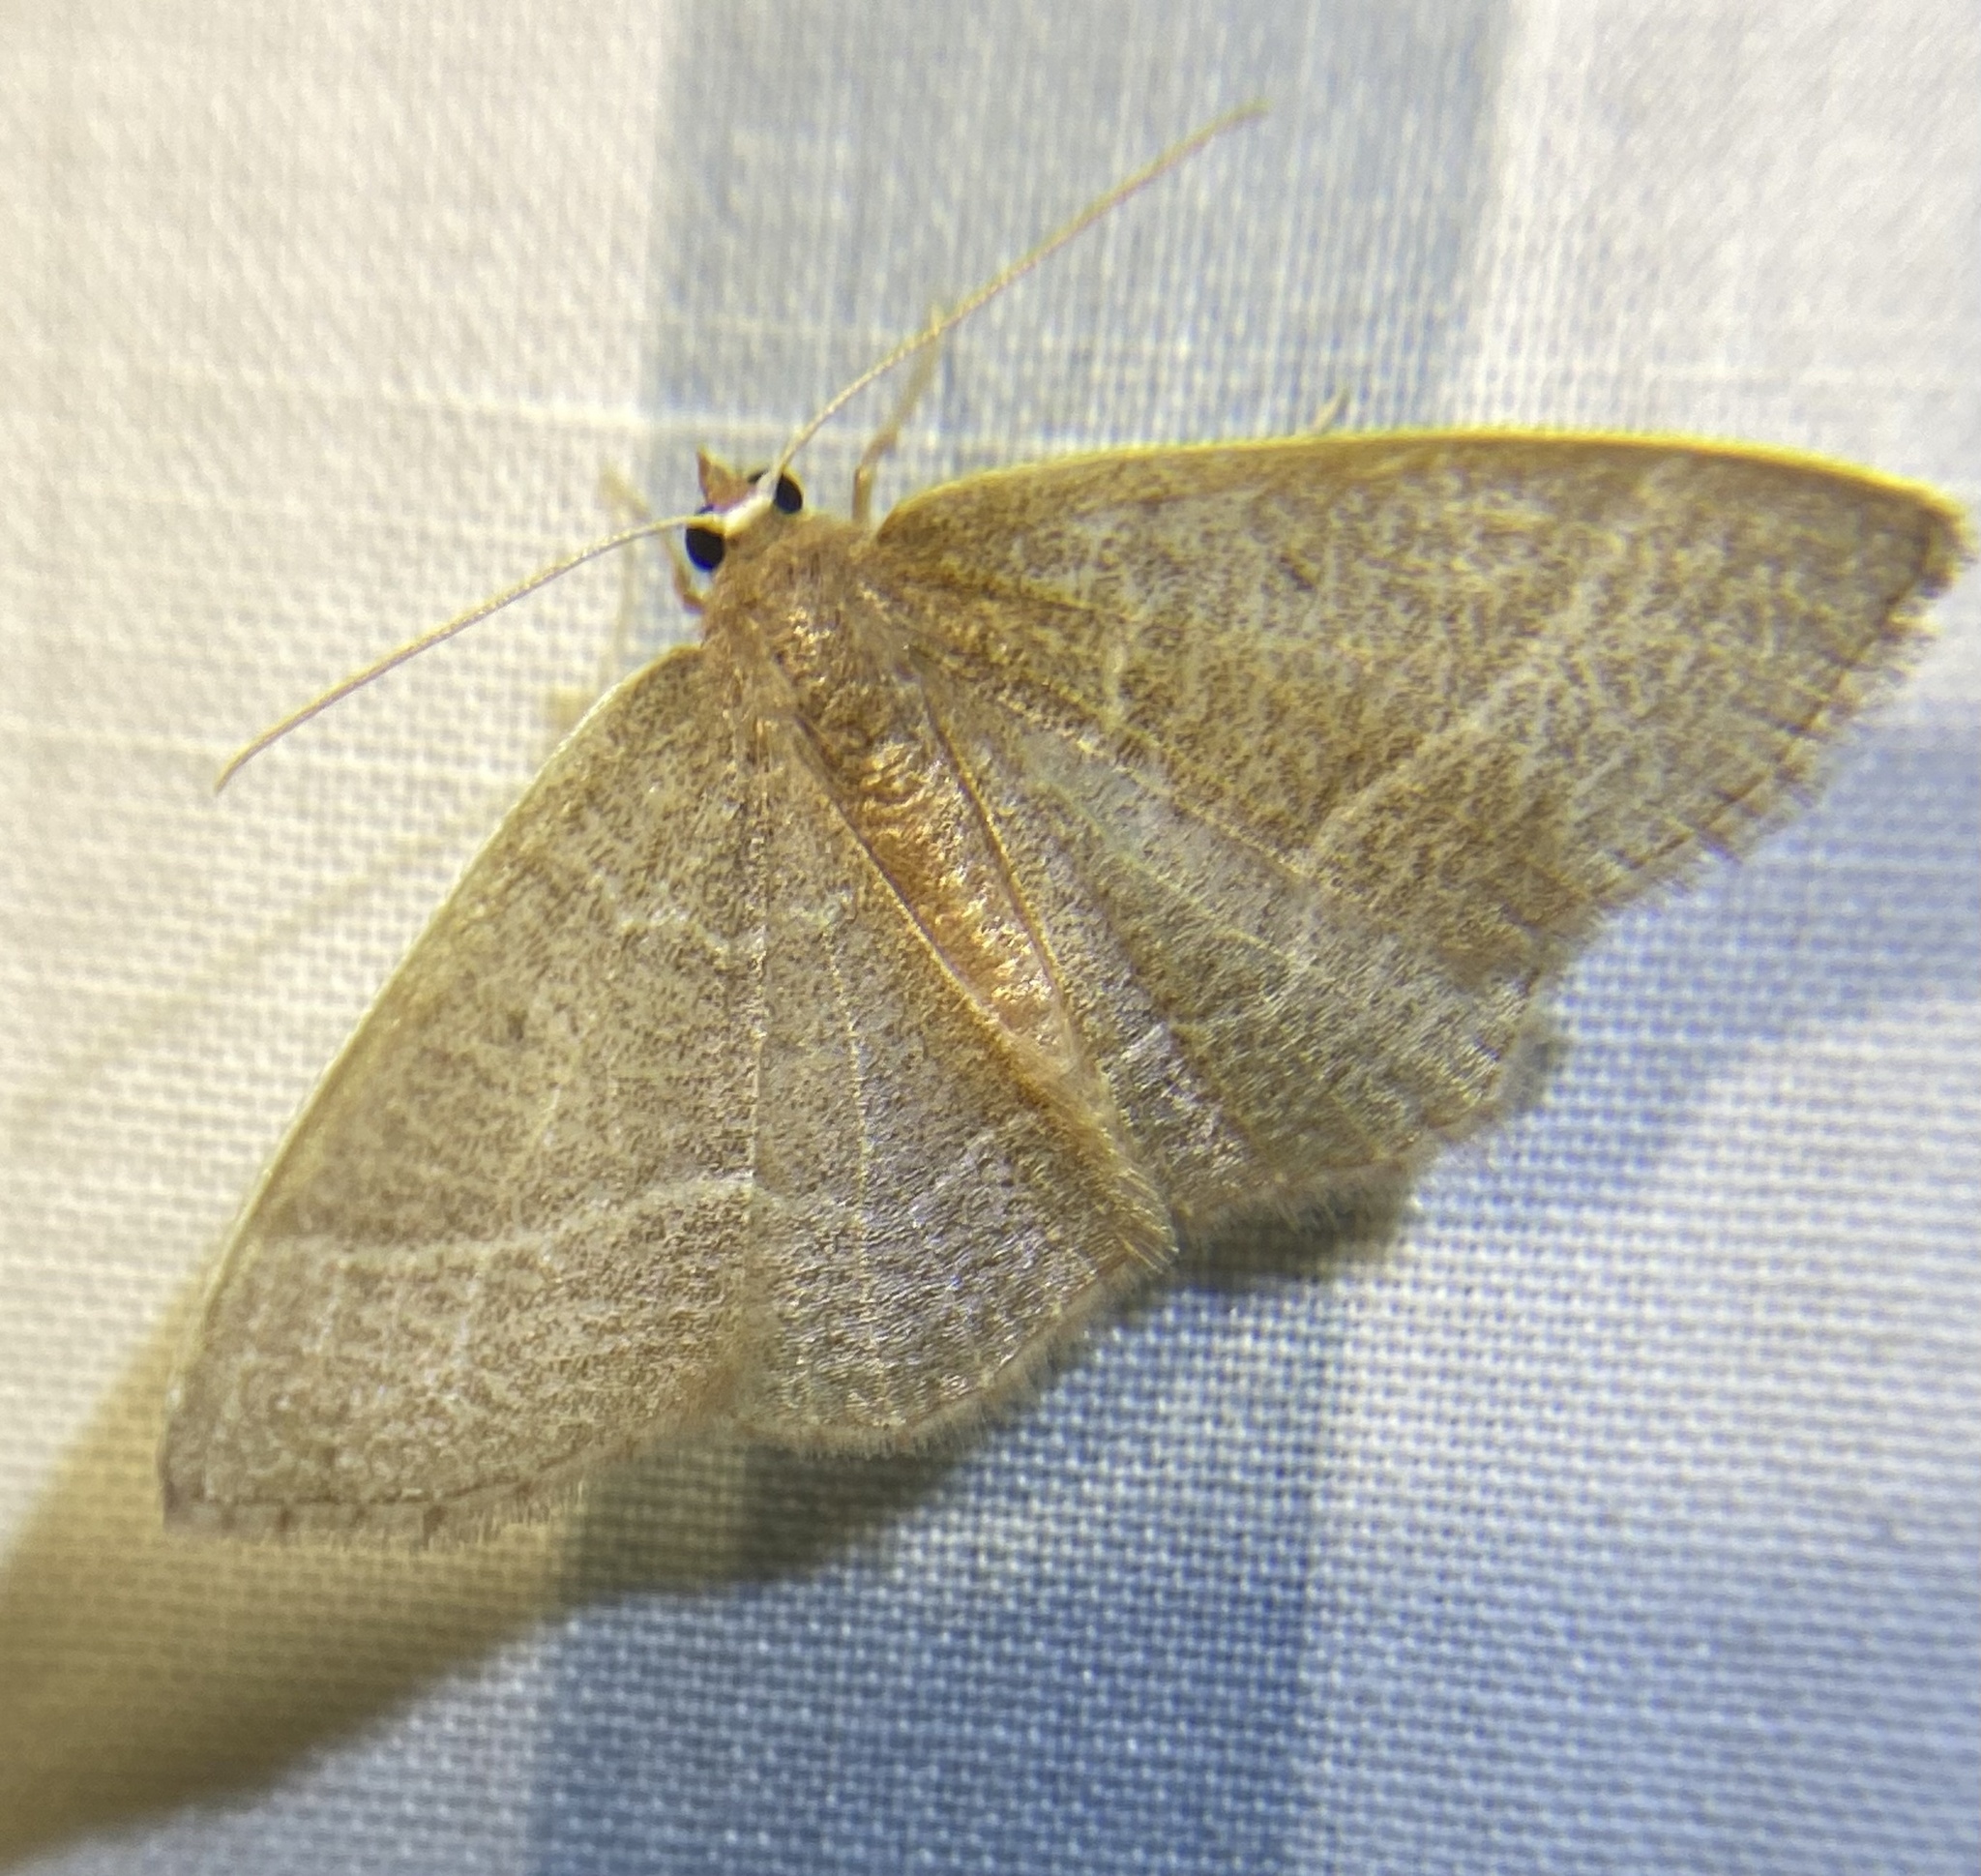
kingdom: Animalia
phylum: Arthropoda
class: Insecta
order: Lepidoptera
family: Geometridae
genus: Nemoria
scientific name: Nemoria bistriaria
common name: Red-fringed emerald
